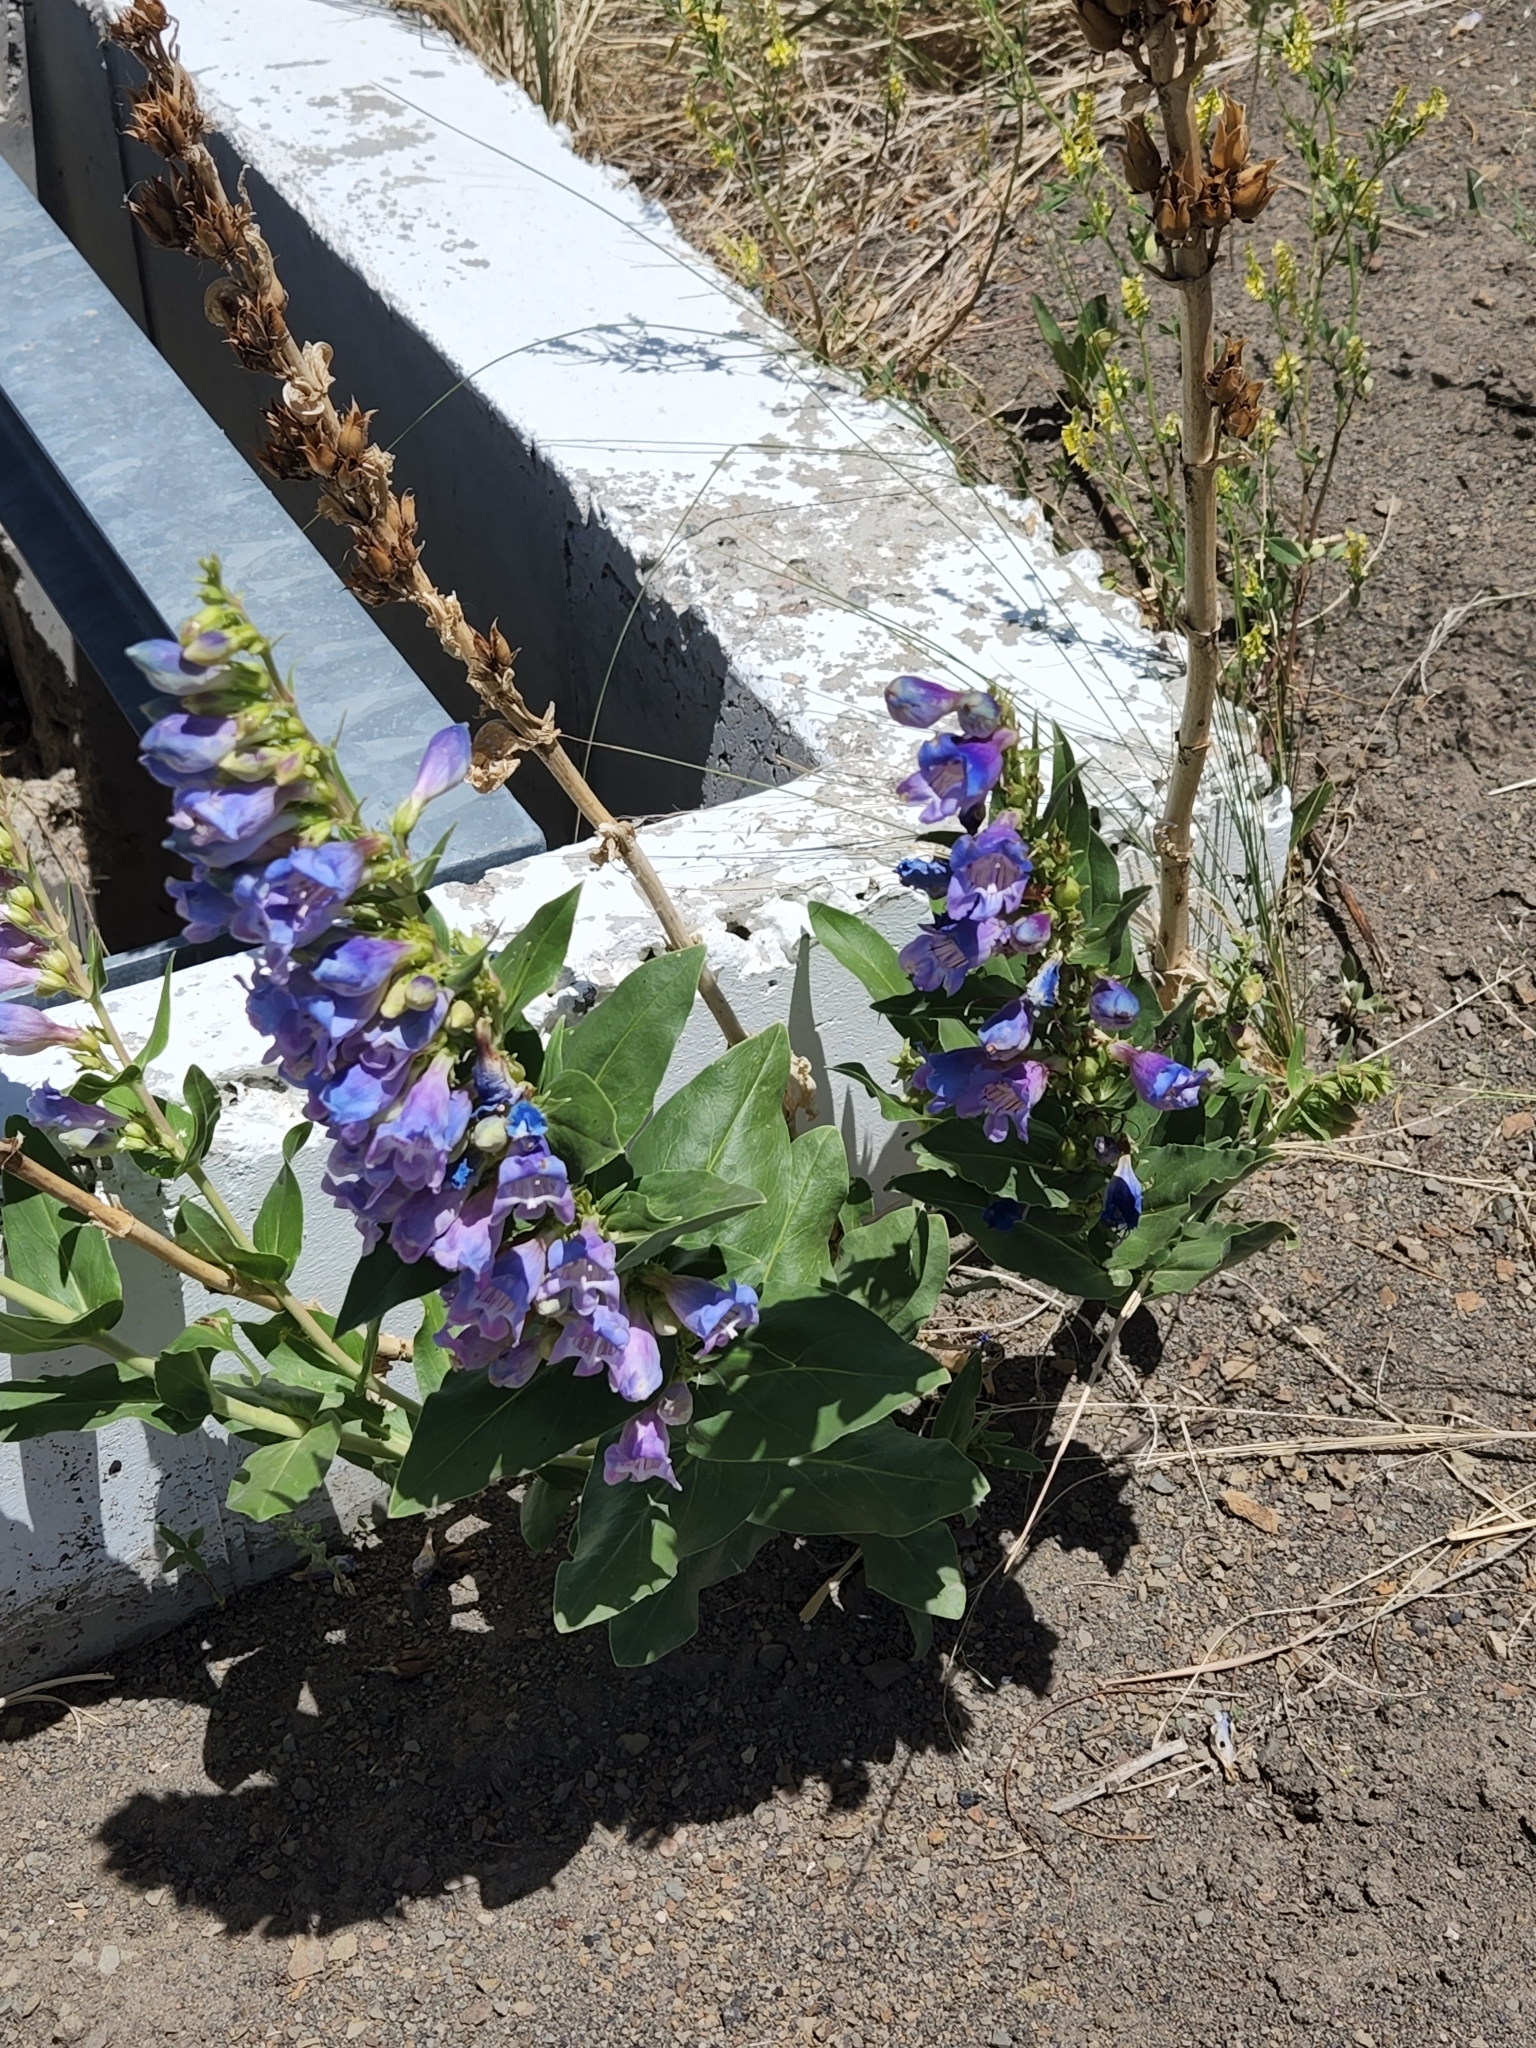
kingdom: Plantae
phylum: Tracheophyta
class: Magnoliopsida
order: Lamiales
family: Plantaginaceae
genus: Penstemon
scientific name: Penstemon glaber
